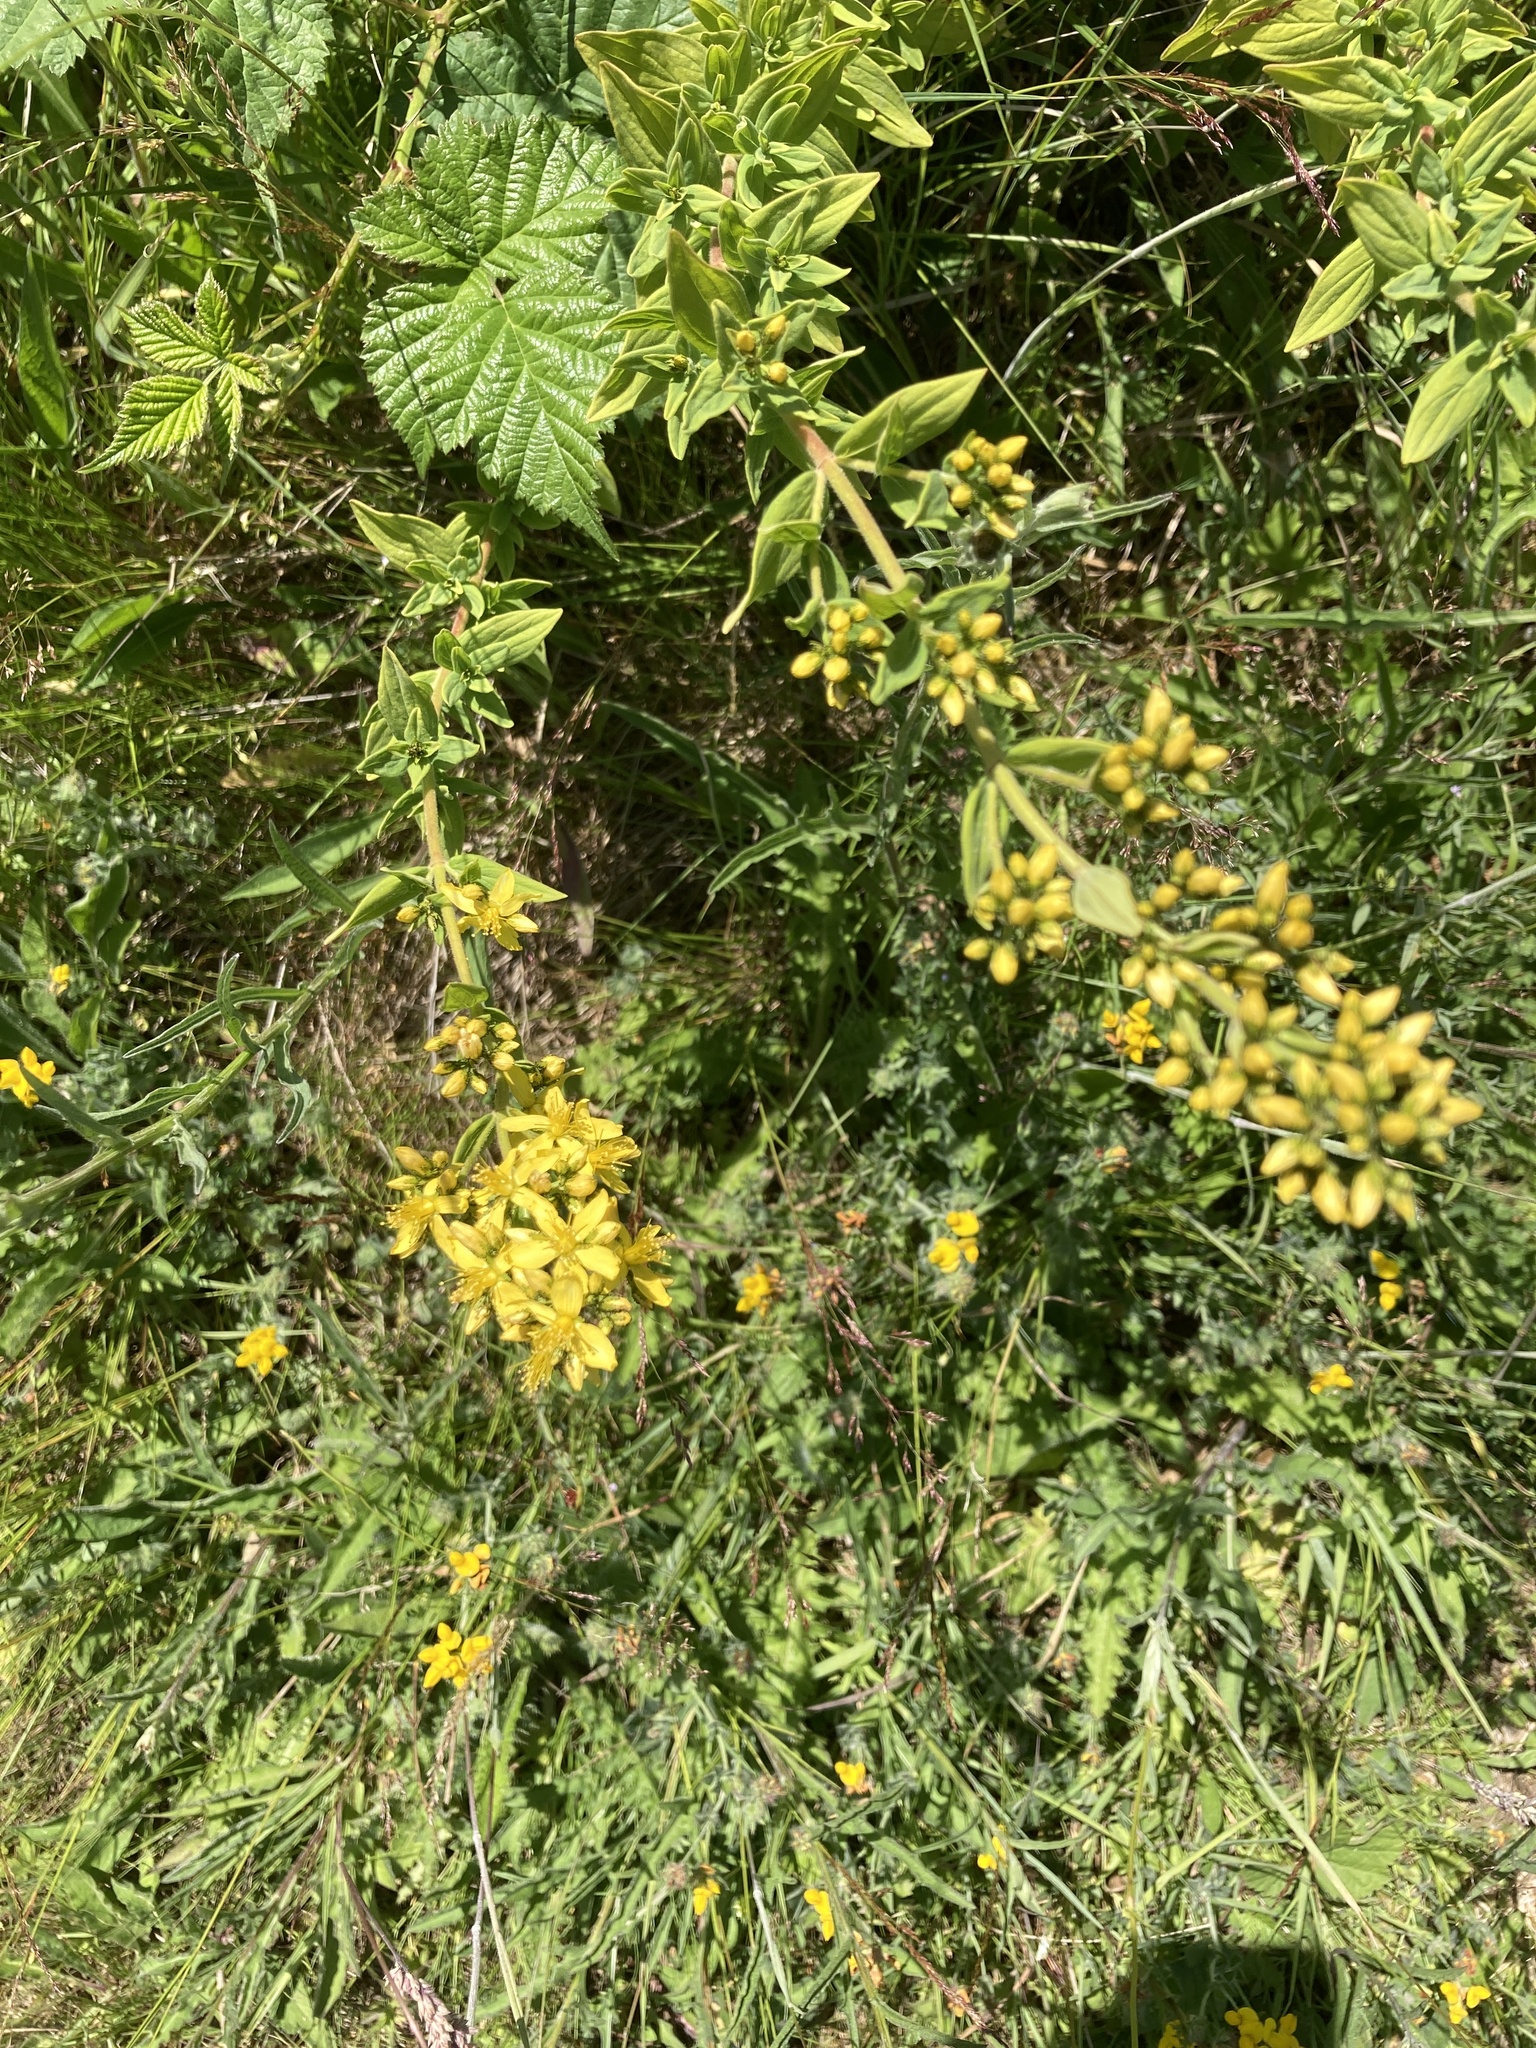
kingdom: Plantae
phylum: Tracheophyta
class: Magnoliopsida
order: Malpighiales
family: Hypericaceae
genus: Hypericum
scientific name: Hypericum hirsutum
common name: Hairy st. john's-wort
